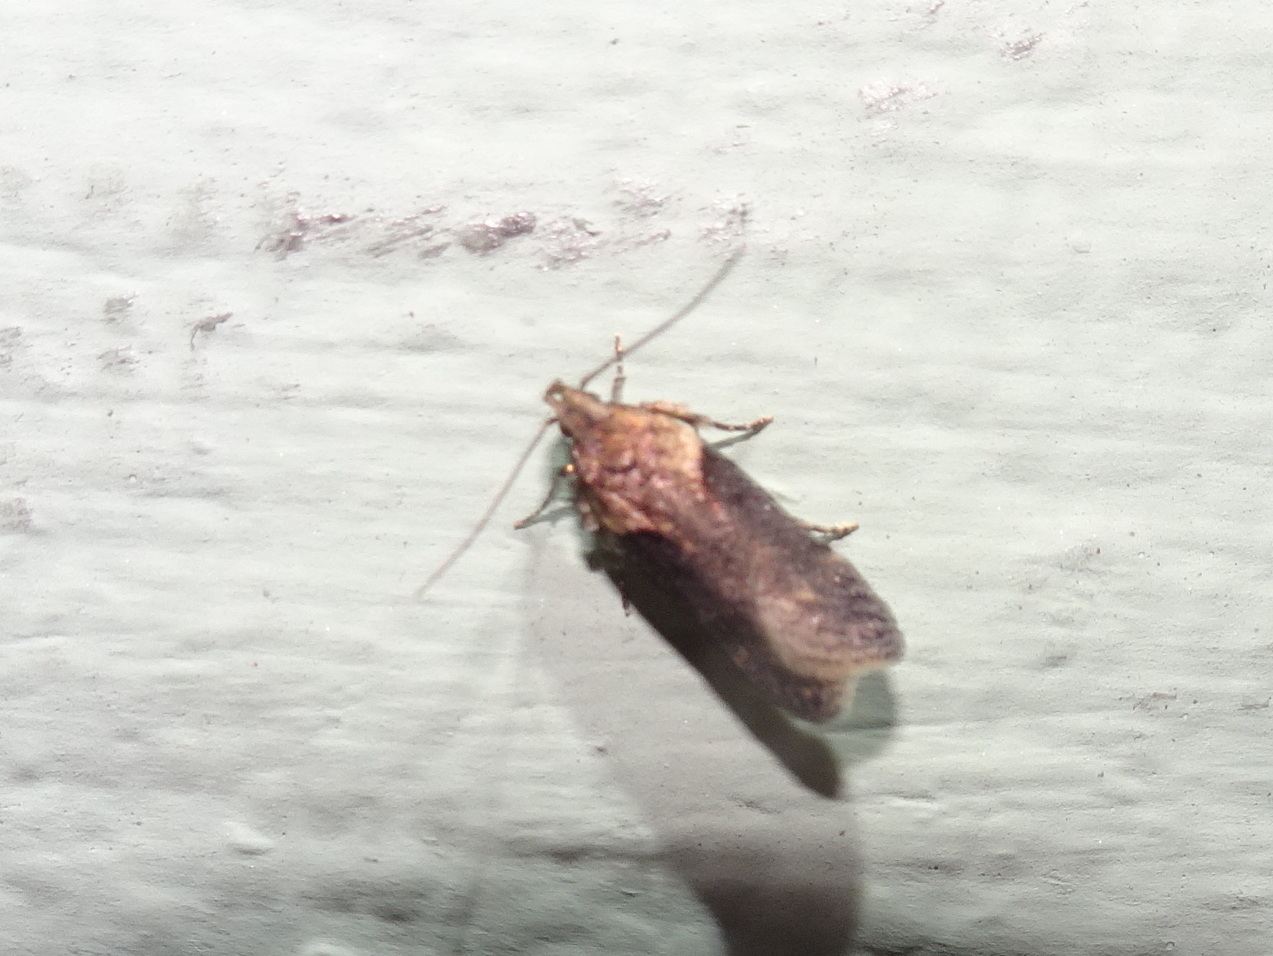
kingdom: Animalia
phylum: Arthropoda
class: Insecta
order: Lepidoptera
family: Gelechiidae
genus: Chionodes
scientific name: Chionodes mediofuscella
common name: Black-smudged chionodes moth
